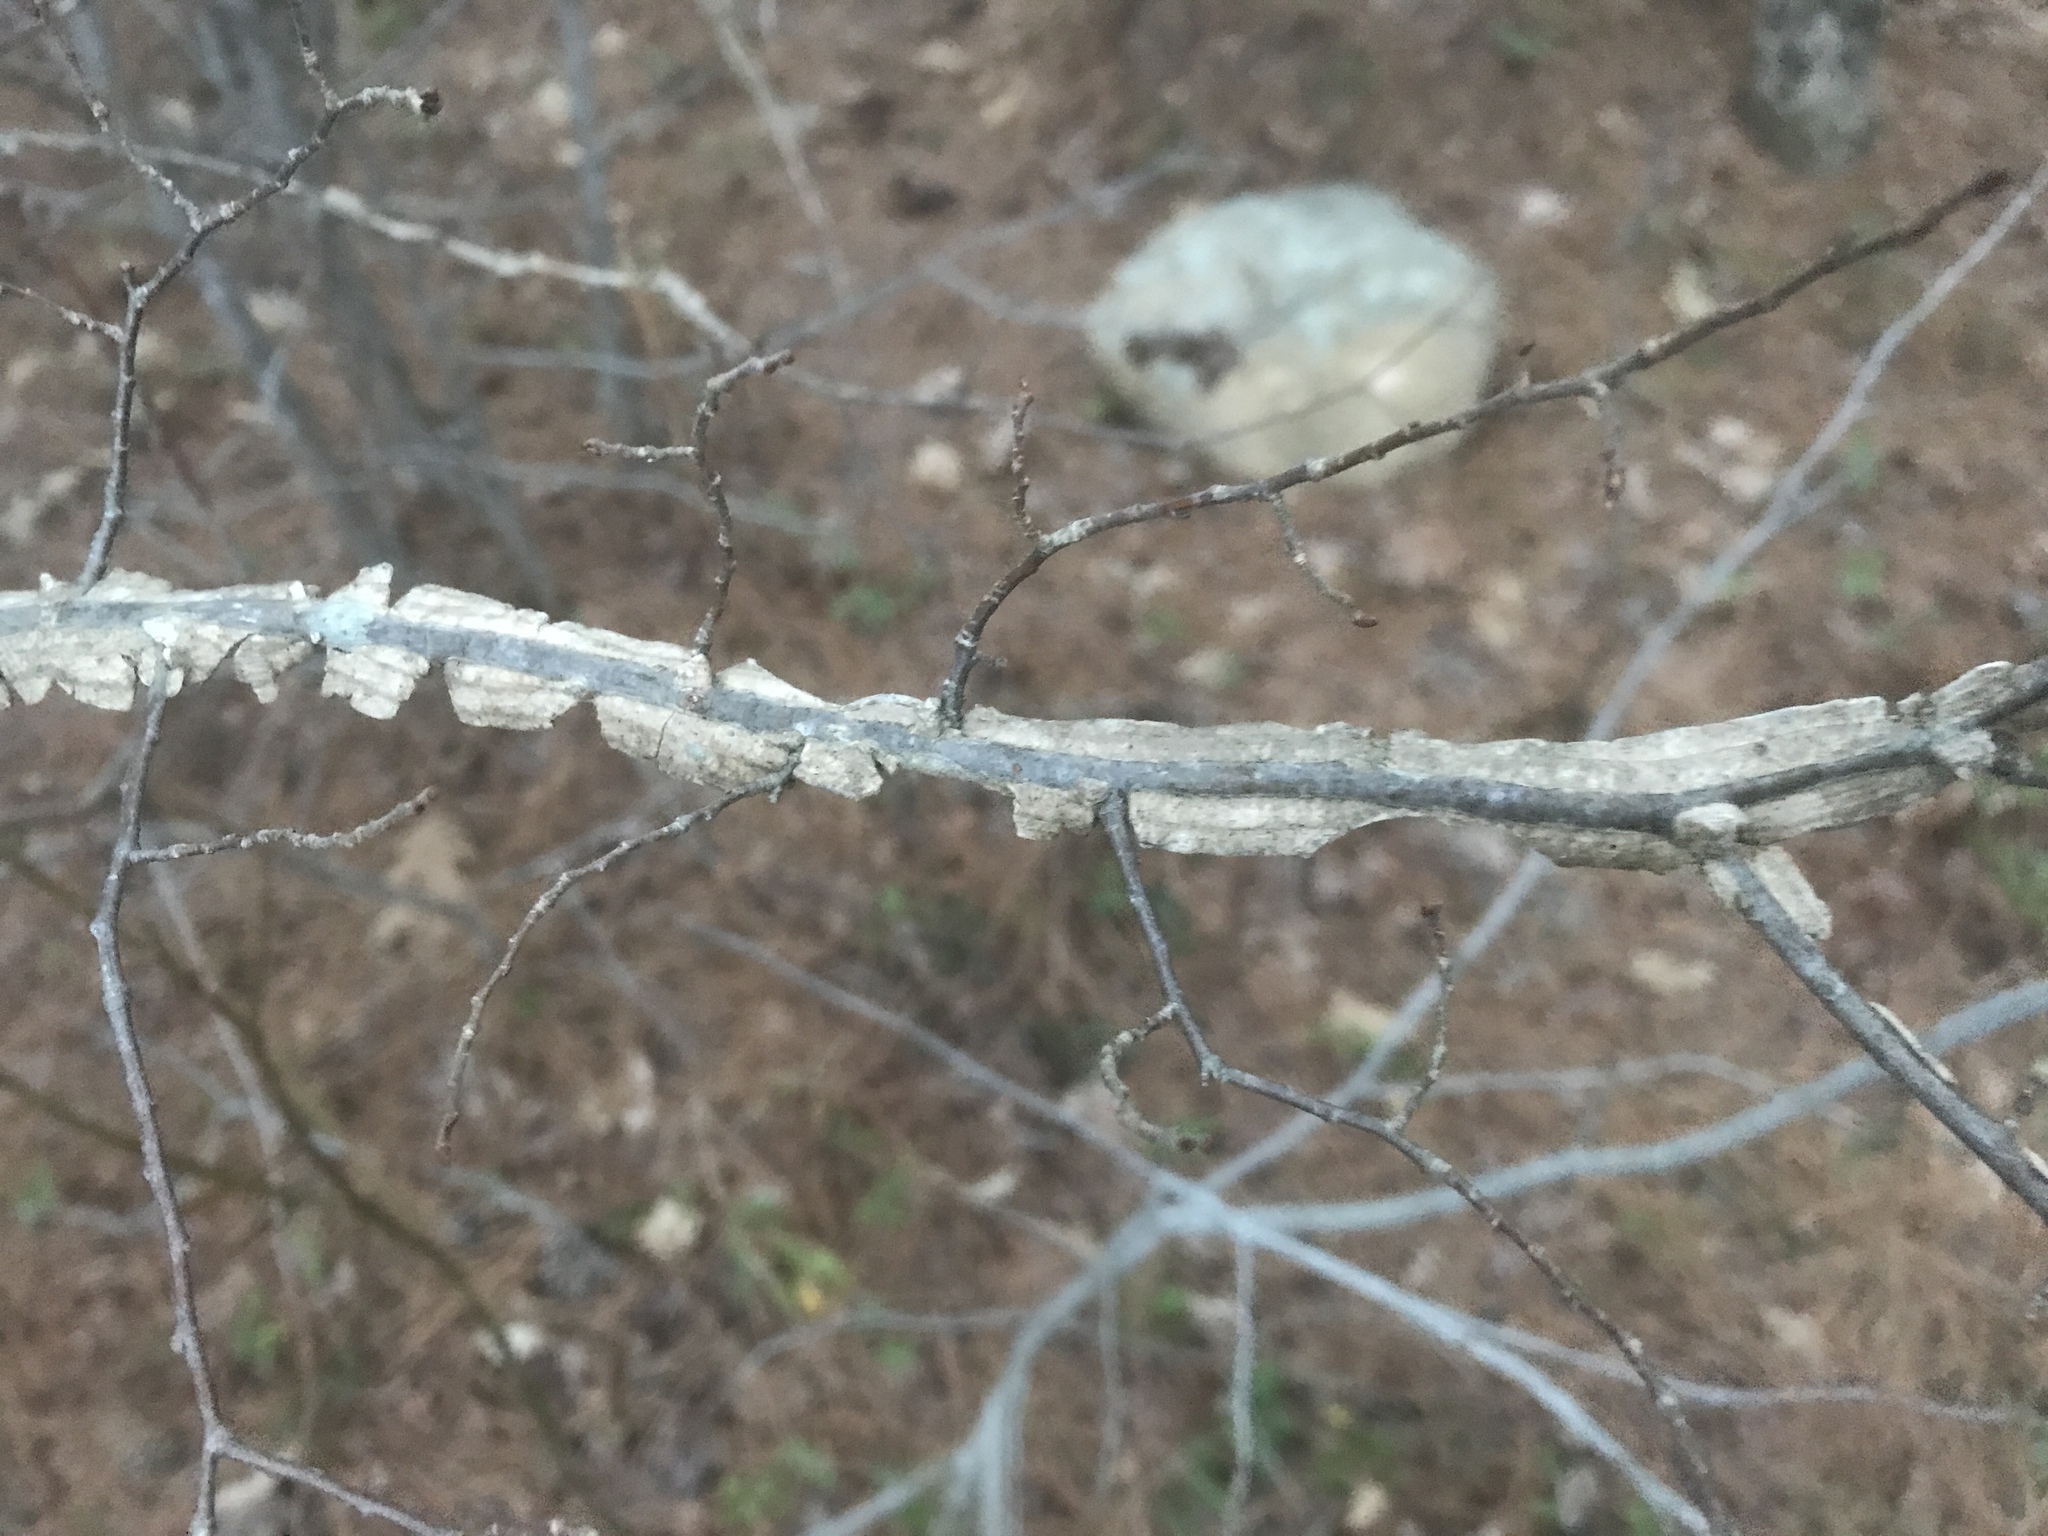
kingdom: Plantae
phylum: Tracheophyta
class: Magnoliopsida
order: Rosales
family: Ulmaceae
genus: Ulmus
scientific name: Ulmus alata
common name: Winged elm
